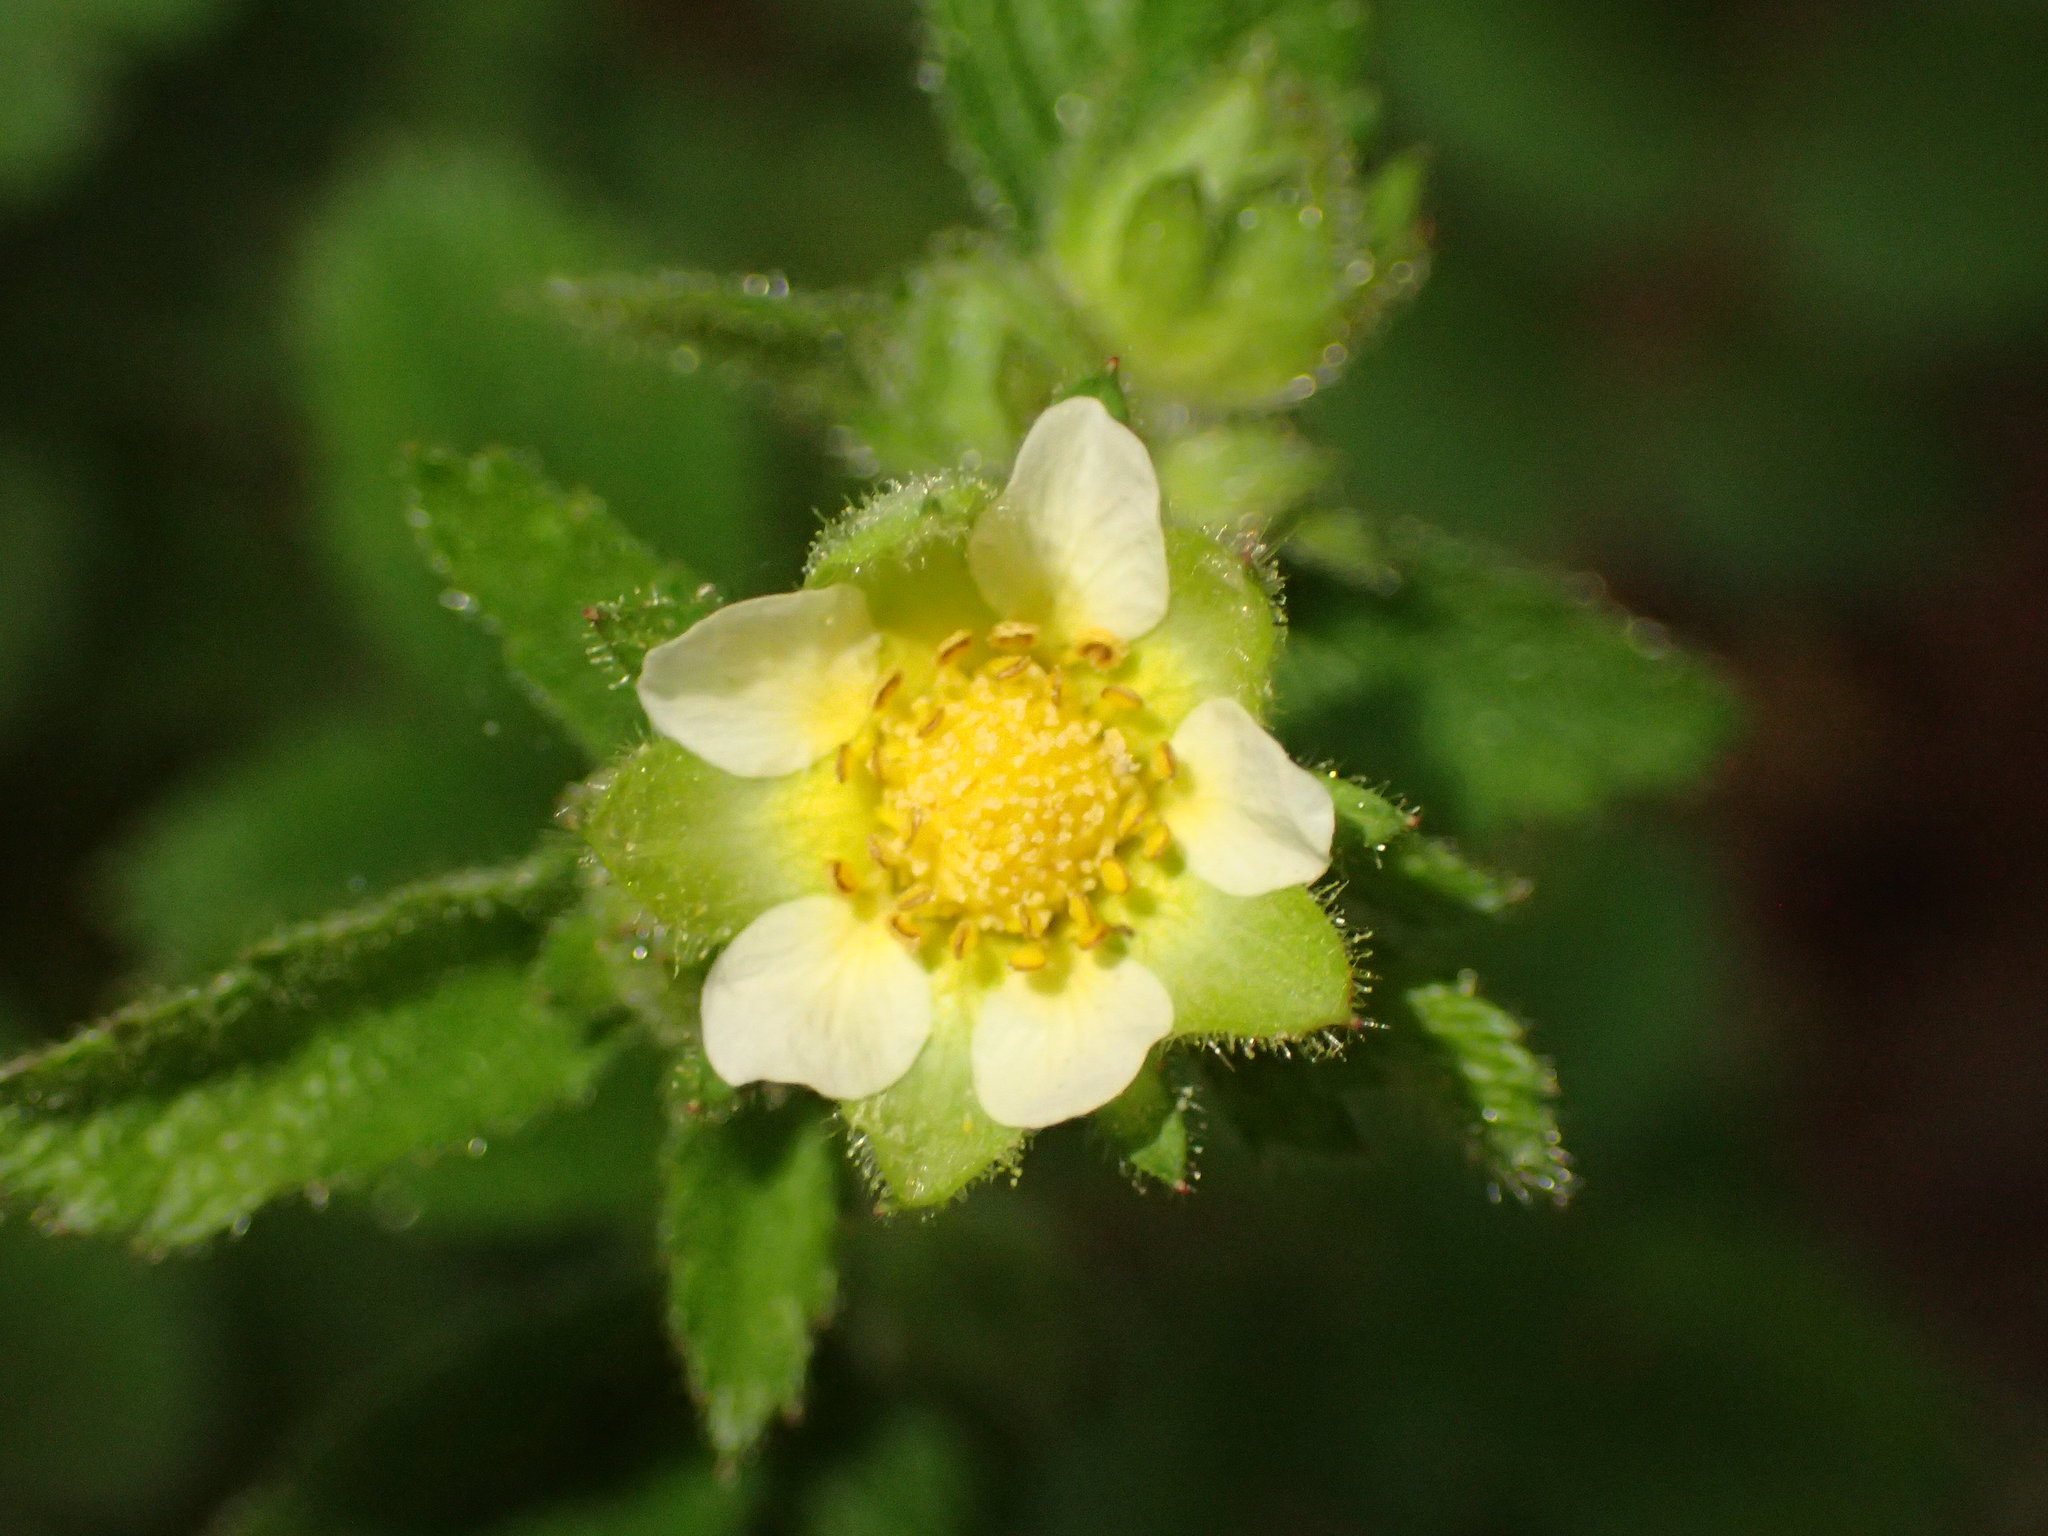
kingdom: Plantae
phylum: Tracheophyta
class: Magnoliopsida
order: Rosales
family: Rosaceae
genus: Drymocallis
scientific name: Drymocallis glandulosa
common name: Sticky cinquefoil
